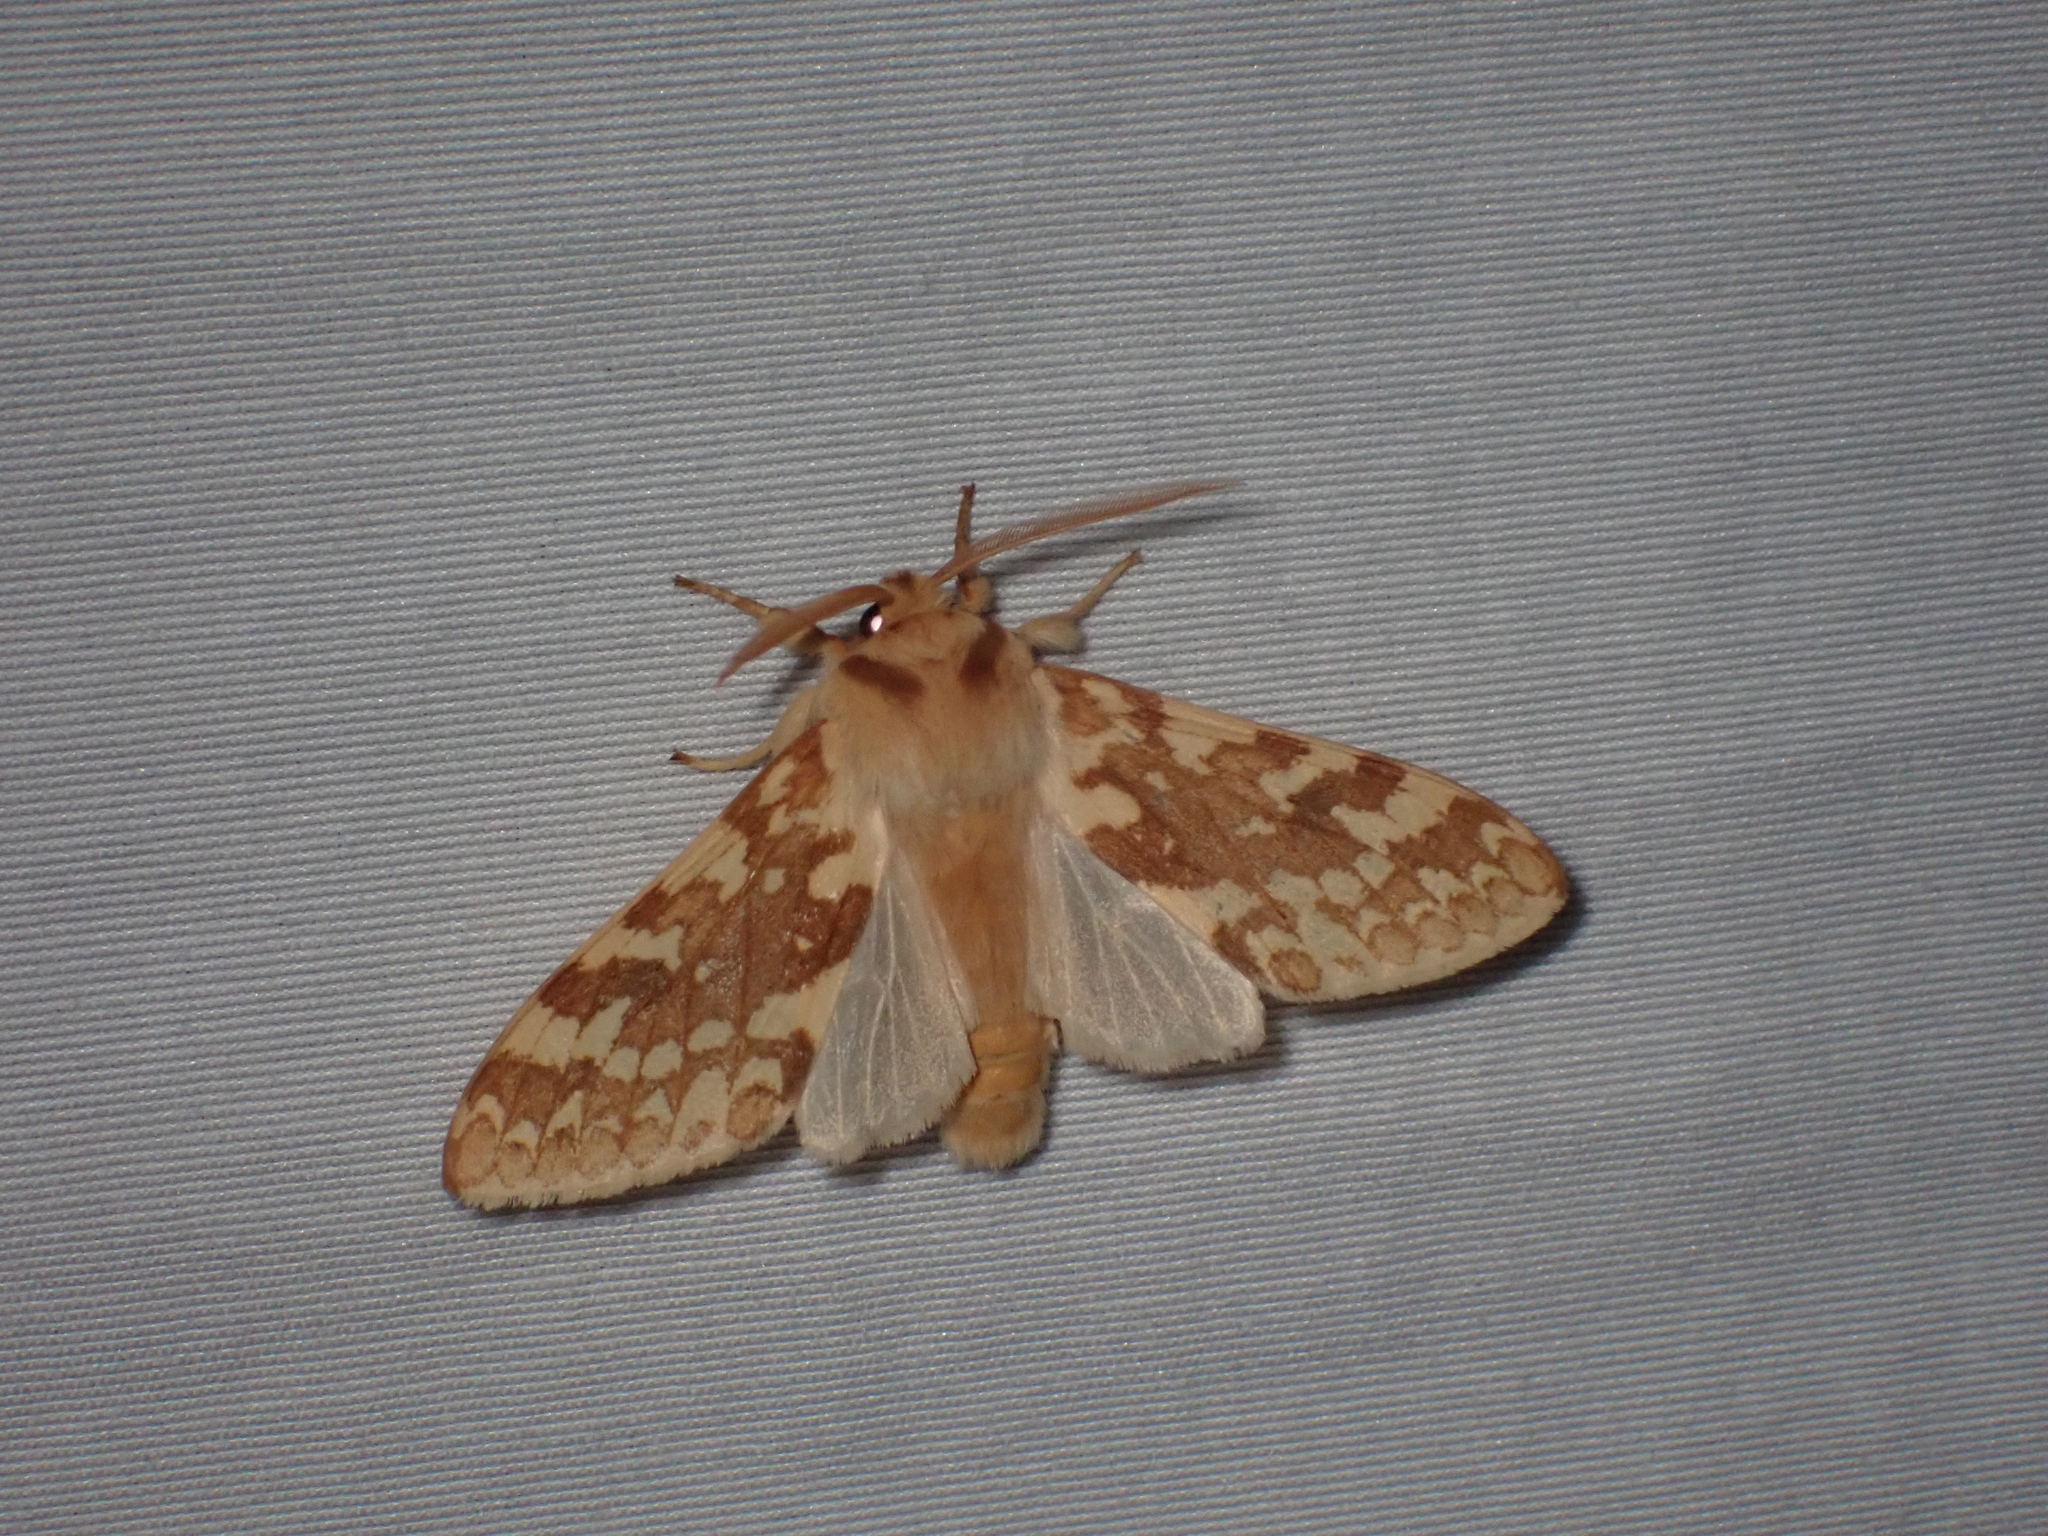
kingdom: Animalia
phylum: Arthropoda
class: Insecta
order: Lepidoptera
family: Erebidae
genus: Lophocampa
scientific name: Lophocampa maculata
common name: Spotted tussock moth
